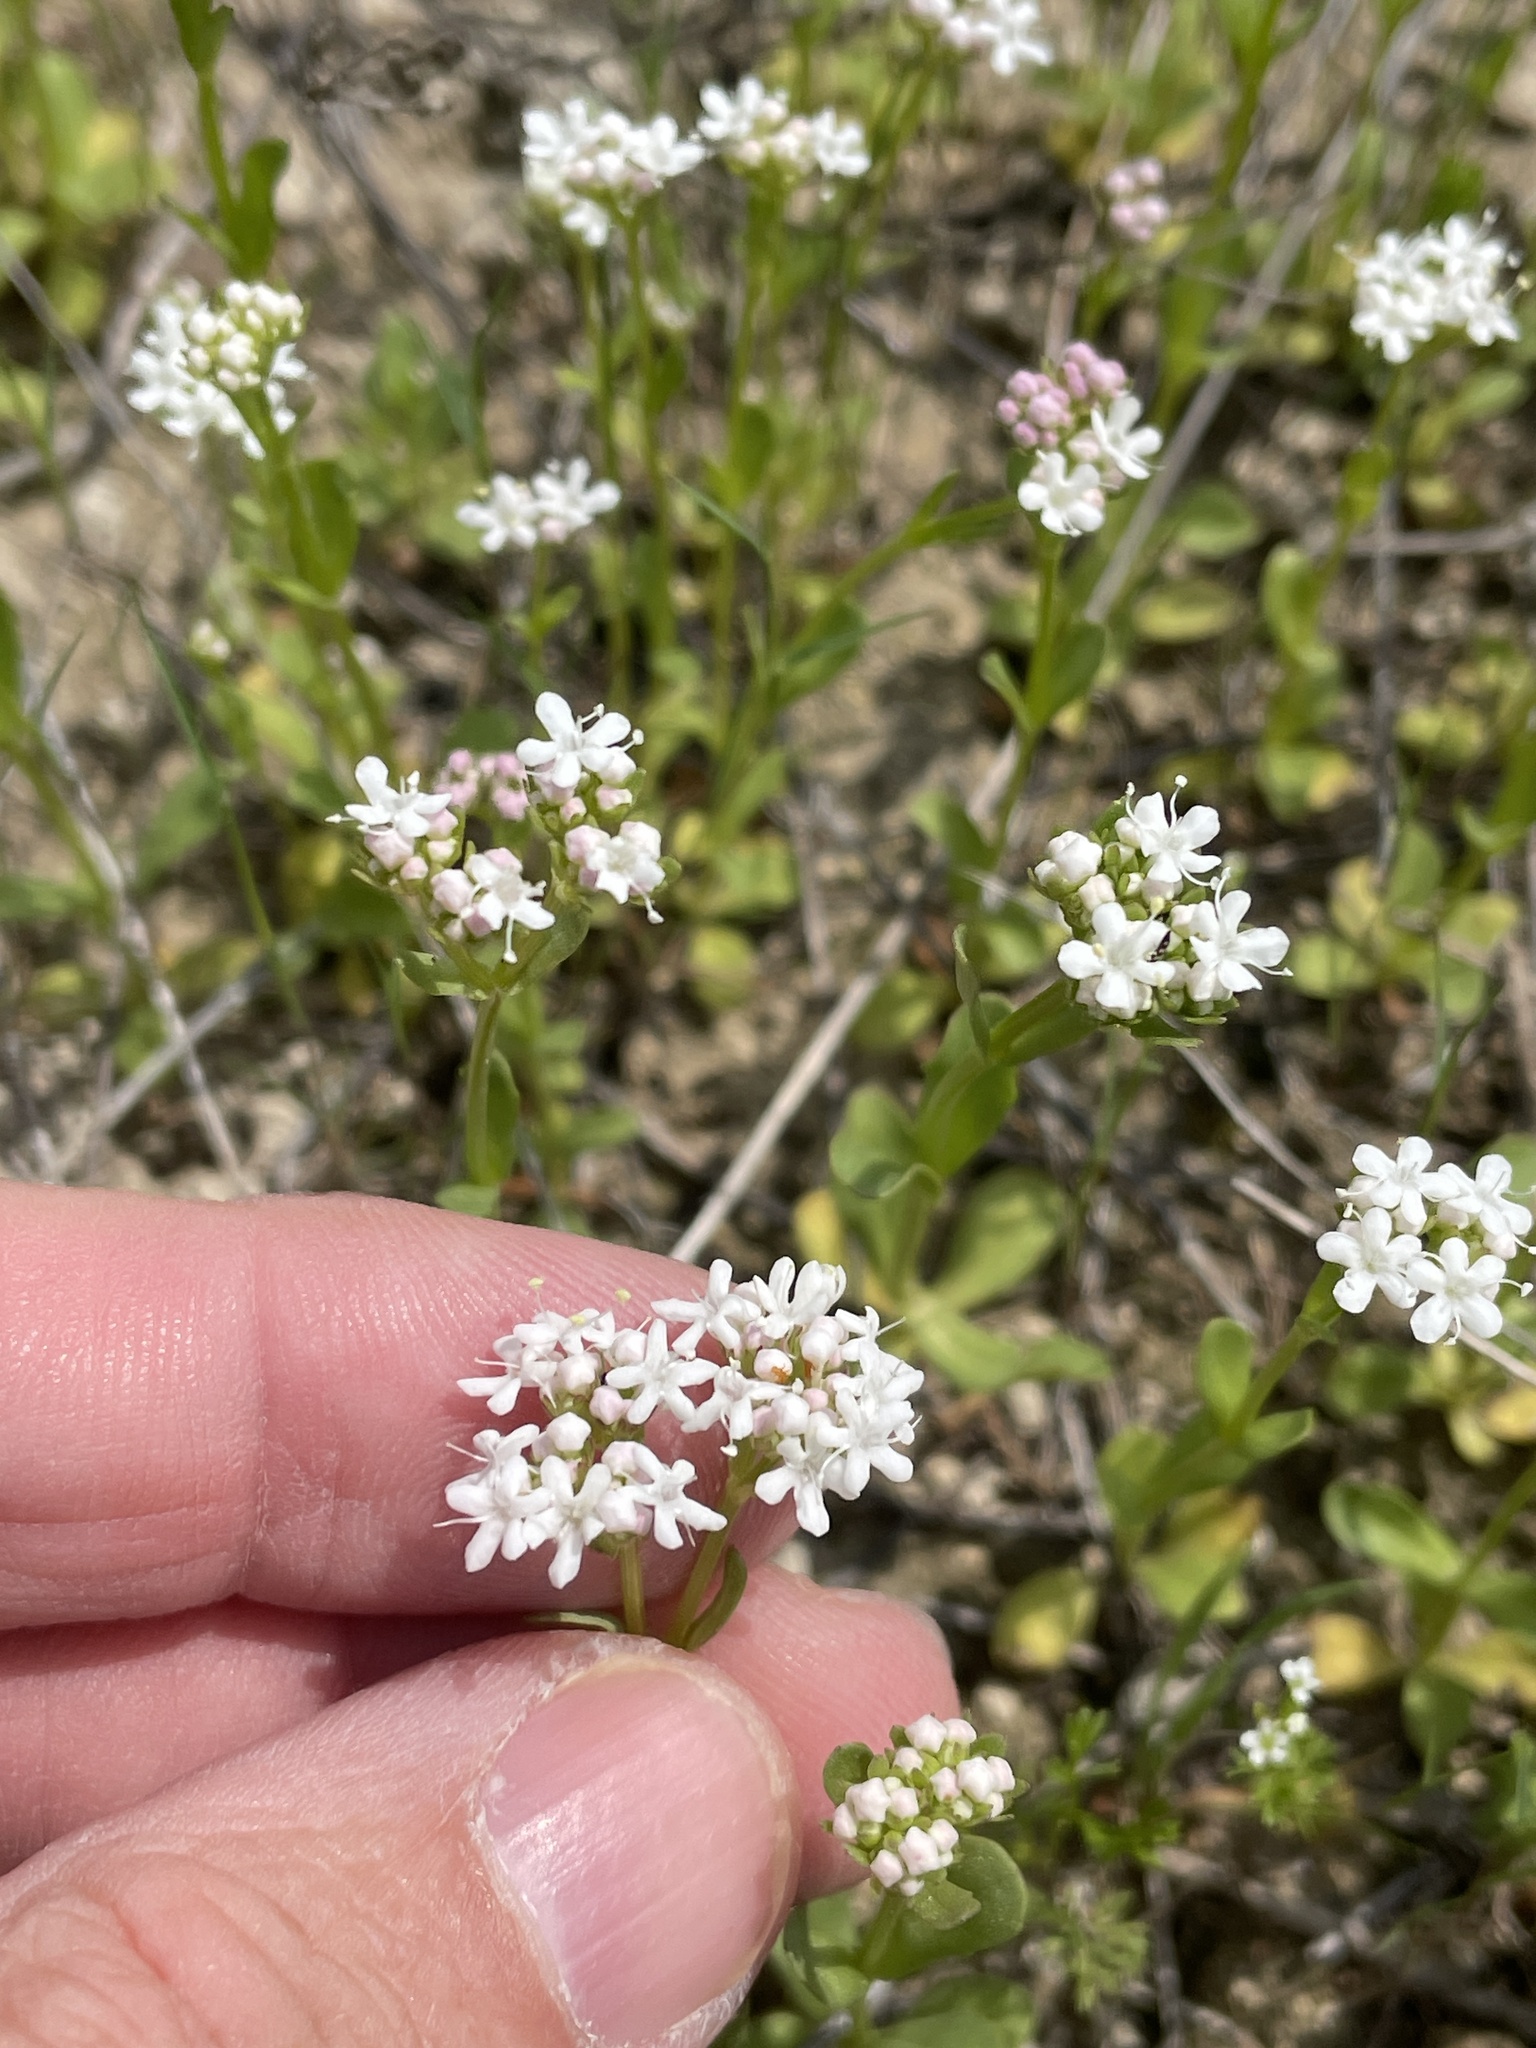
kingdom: Plantae
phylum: Tracheophyta
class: Magnoliopsida
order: Dipsacales
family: Caprifoliaceae
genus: Valerianella
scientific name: Valerianella amarella
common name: Hariy cornsalad
